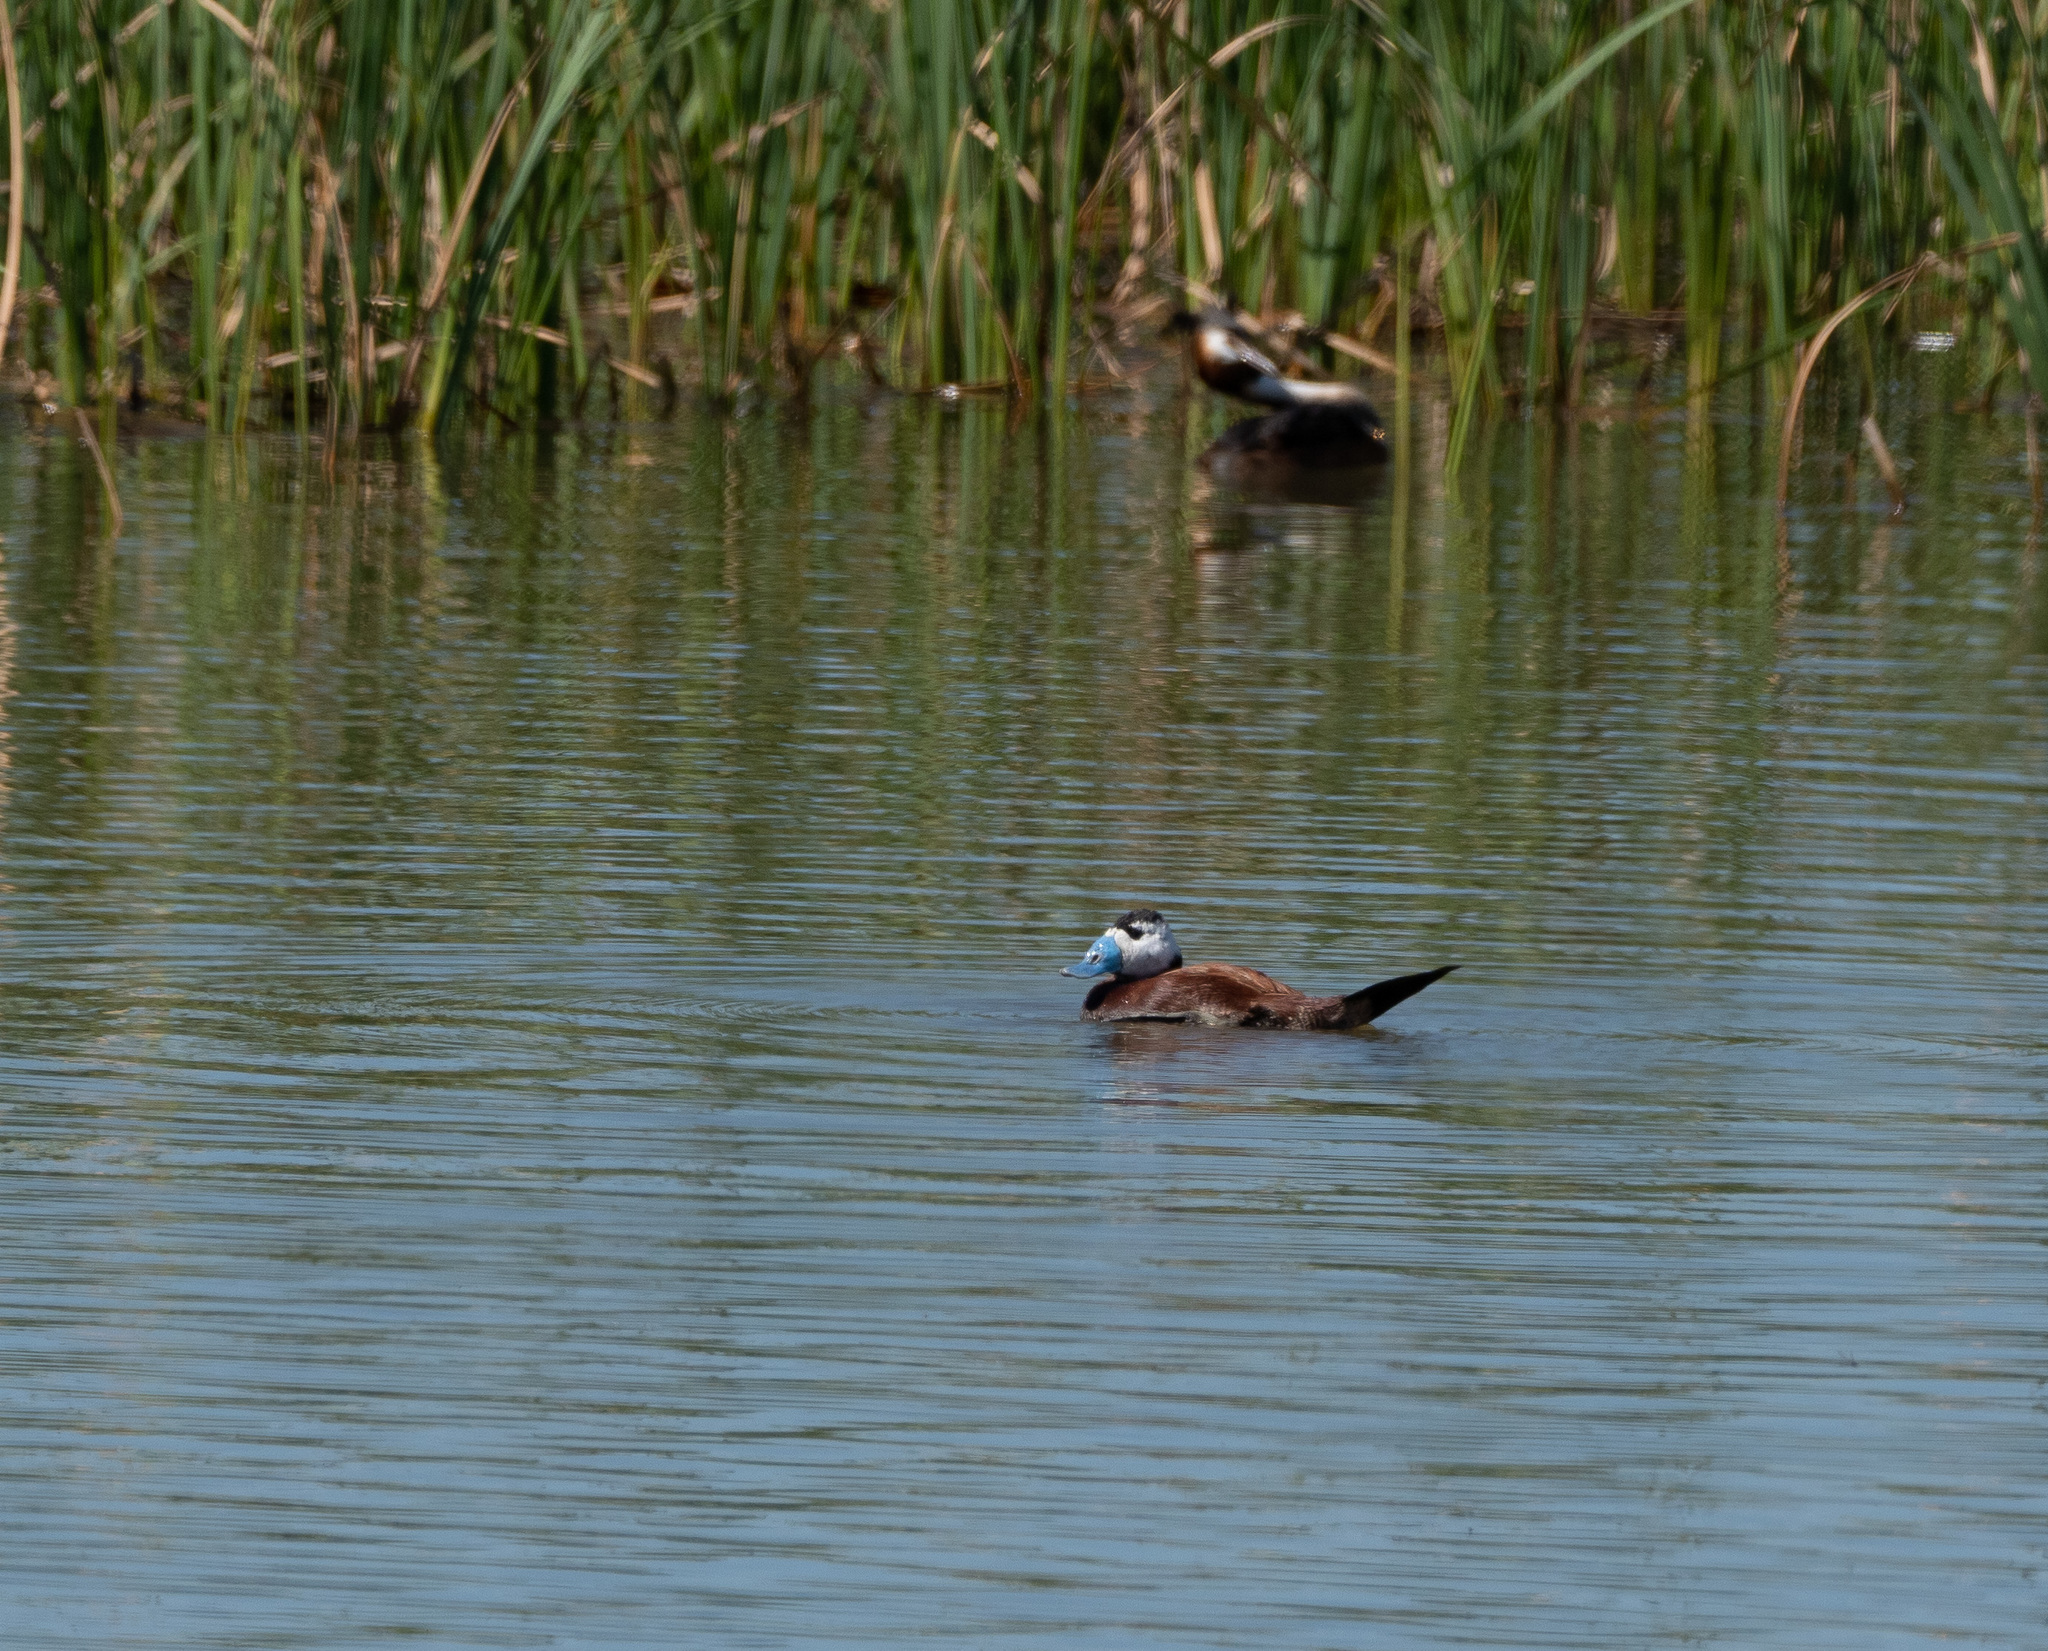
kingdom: Animalia
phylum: Chordata
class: Aves
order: Anseriformes
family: Anatidae
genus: Oxyura
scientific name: Oxyura leucocephala
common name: White-headed duck
